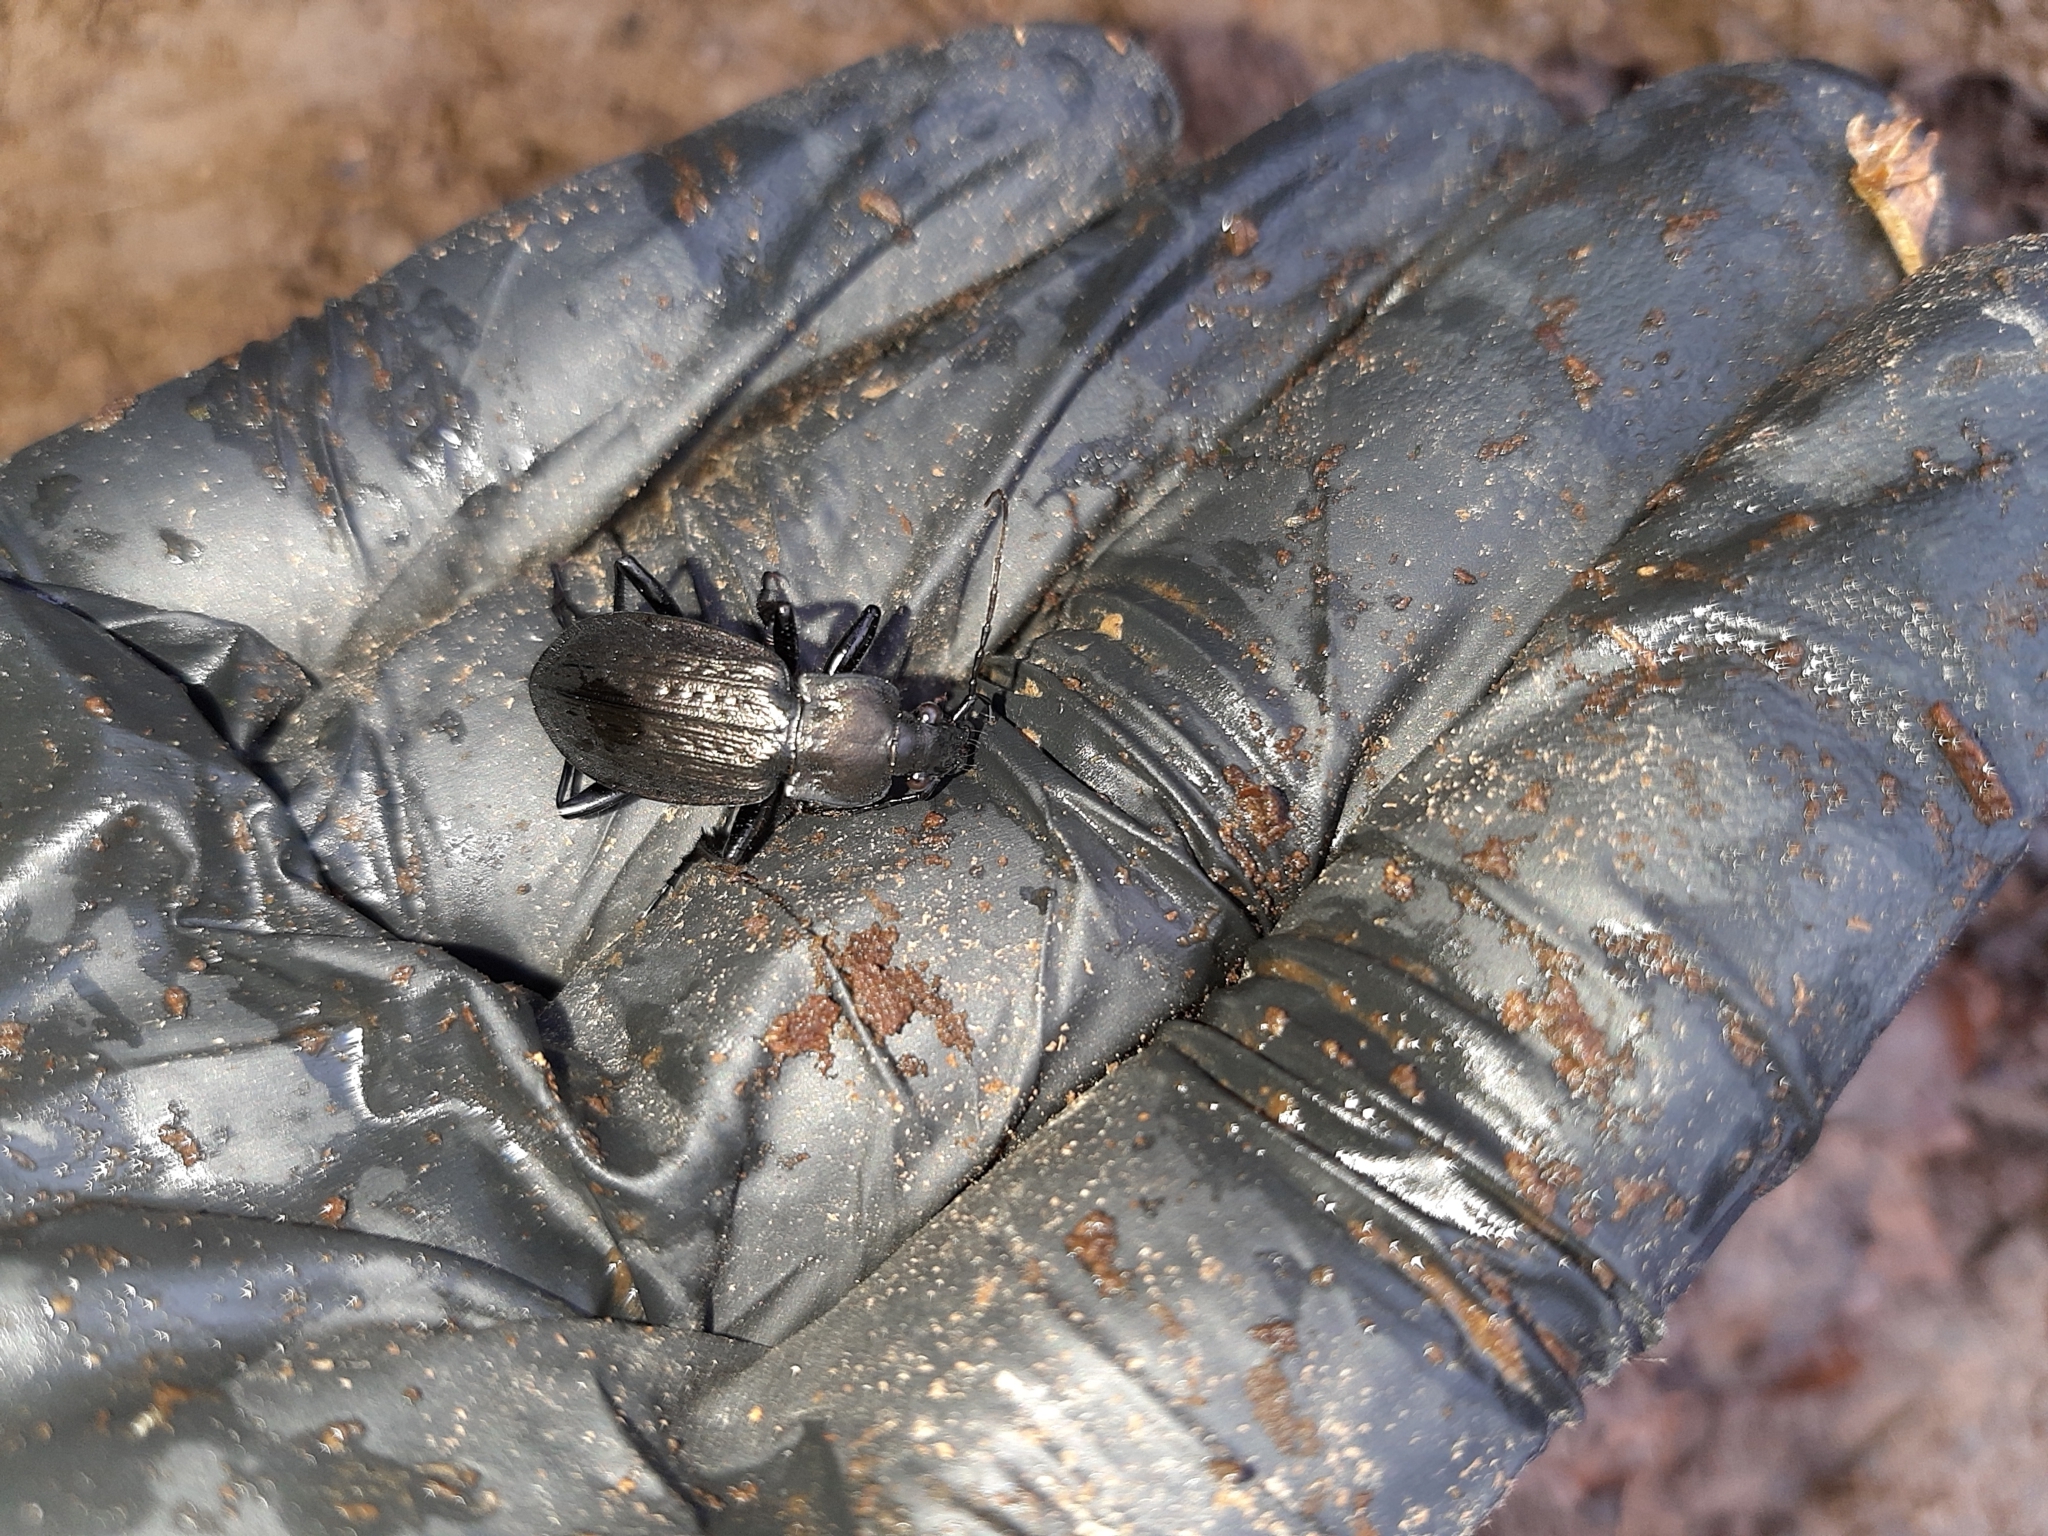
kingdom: Animalia
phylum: Arthropoda
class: Insecta
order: Coleoptera
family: Carabidae
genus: Carabus
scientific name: Carabus granulatus
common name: Granulate ground beetle
